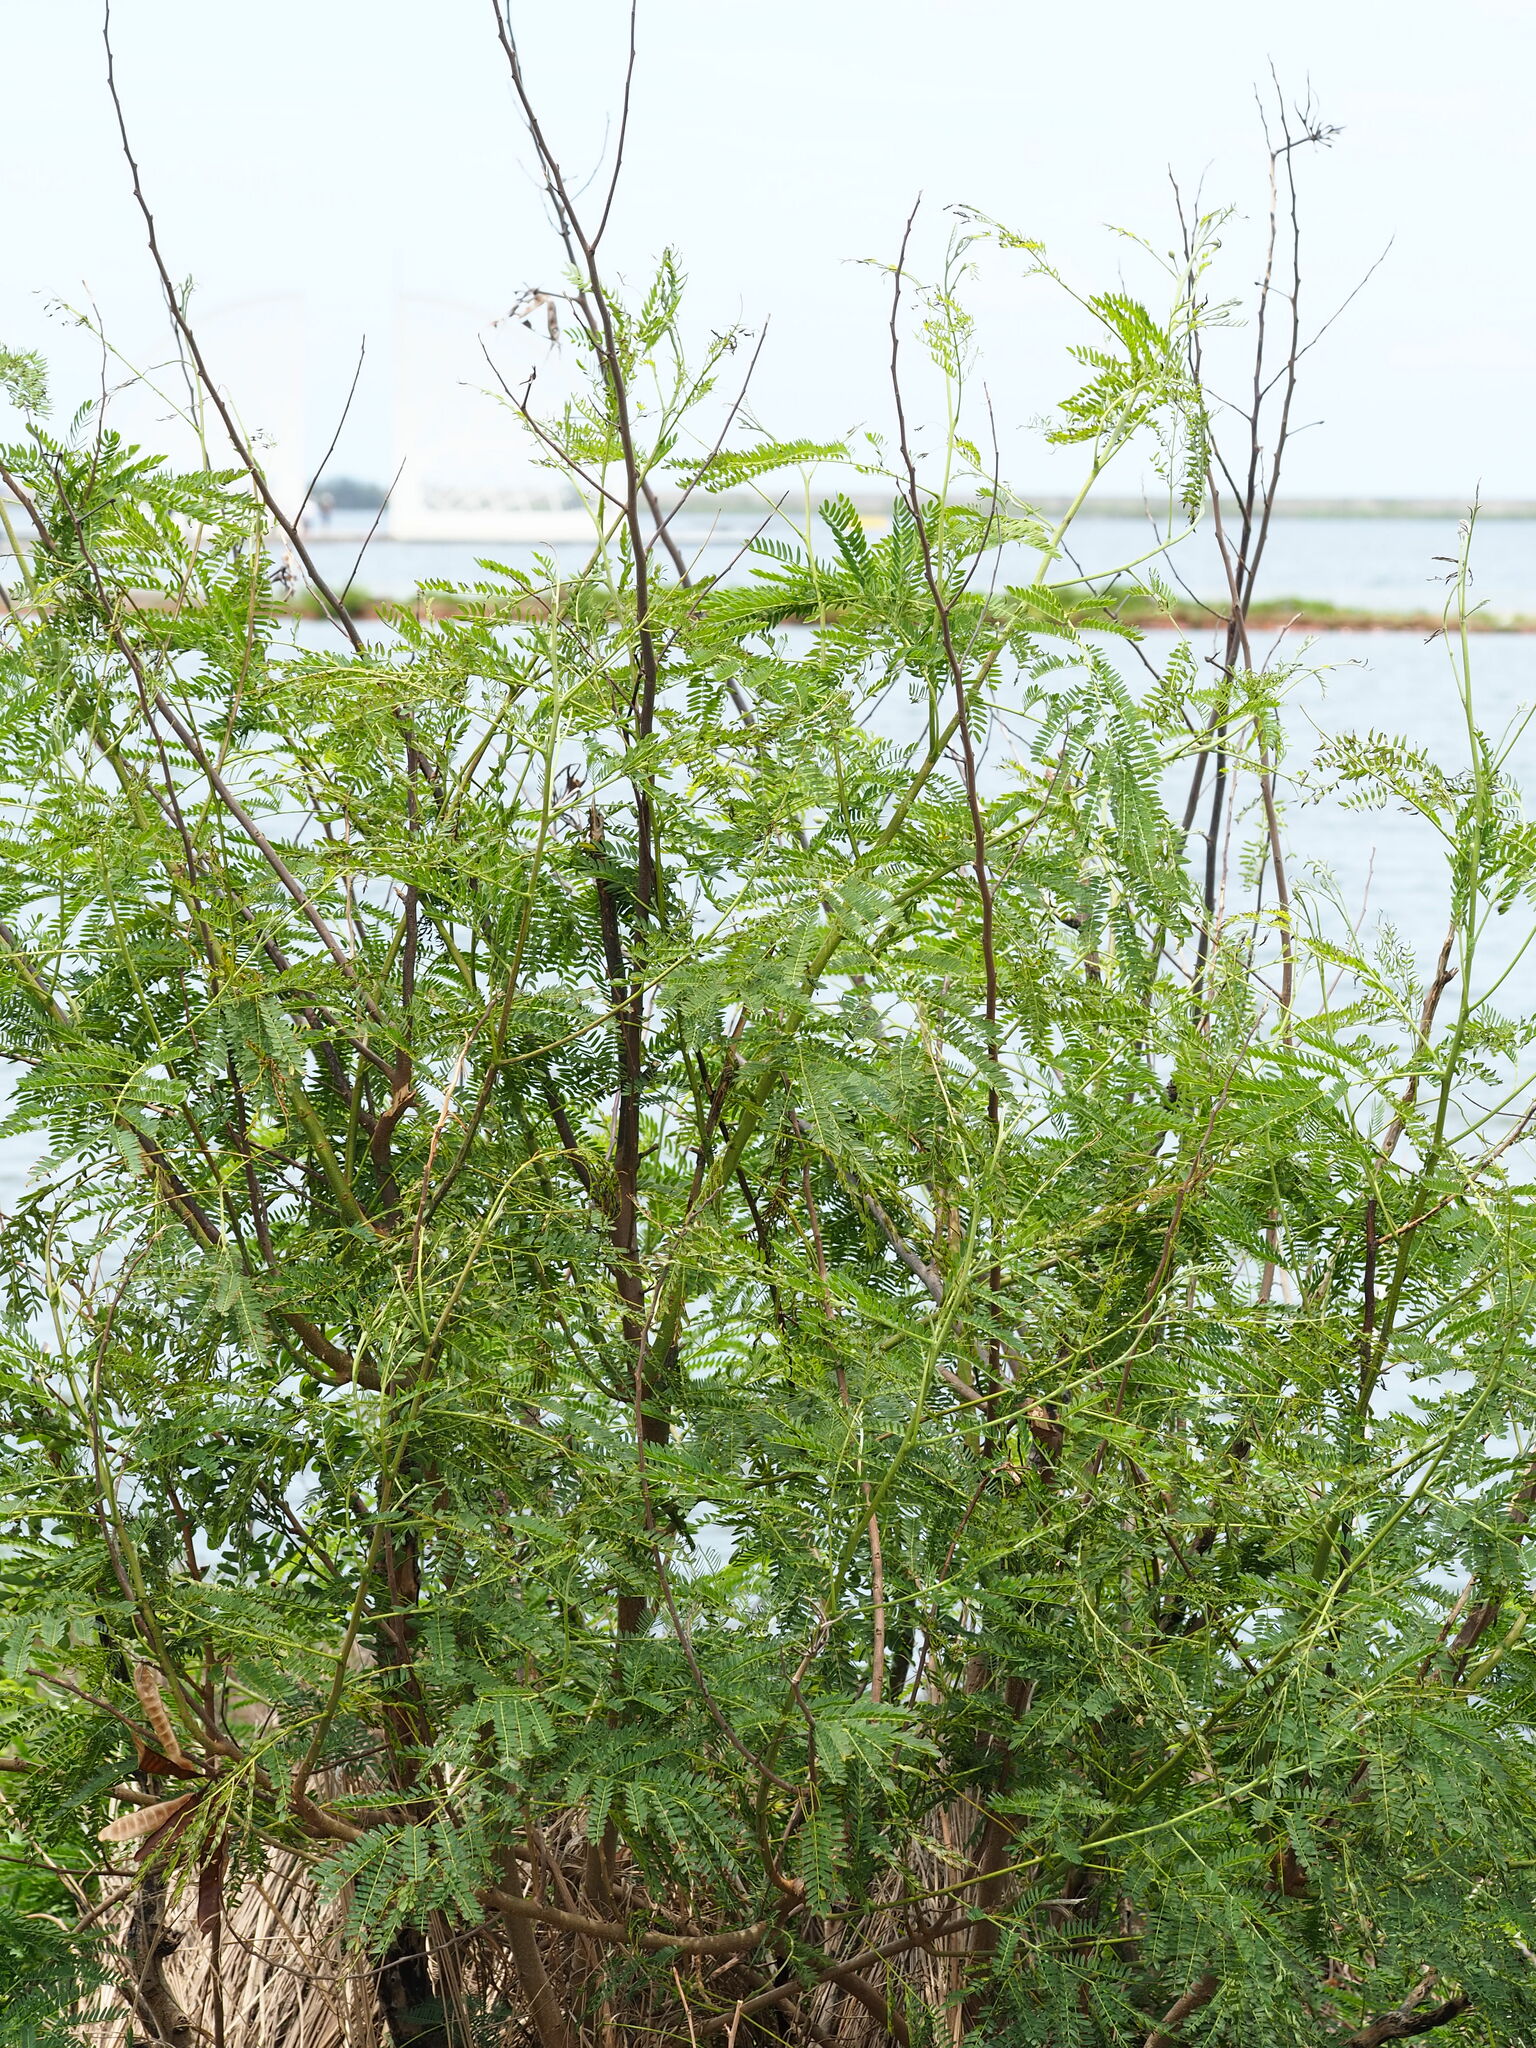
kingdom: Plantae
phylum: Tracheophyta
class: Magnoliopsida
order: Fabales
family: Fabaceae
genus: Leucaena
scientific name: Leucaena leucocephala
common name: White leadtree
